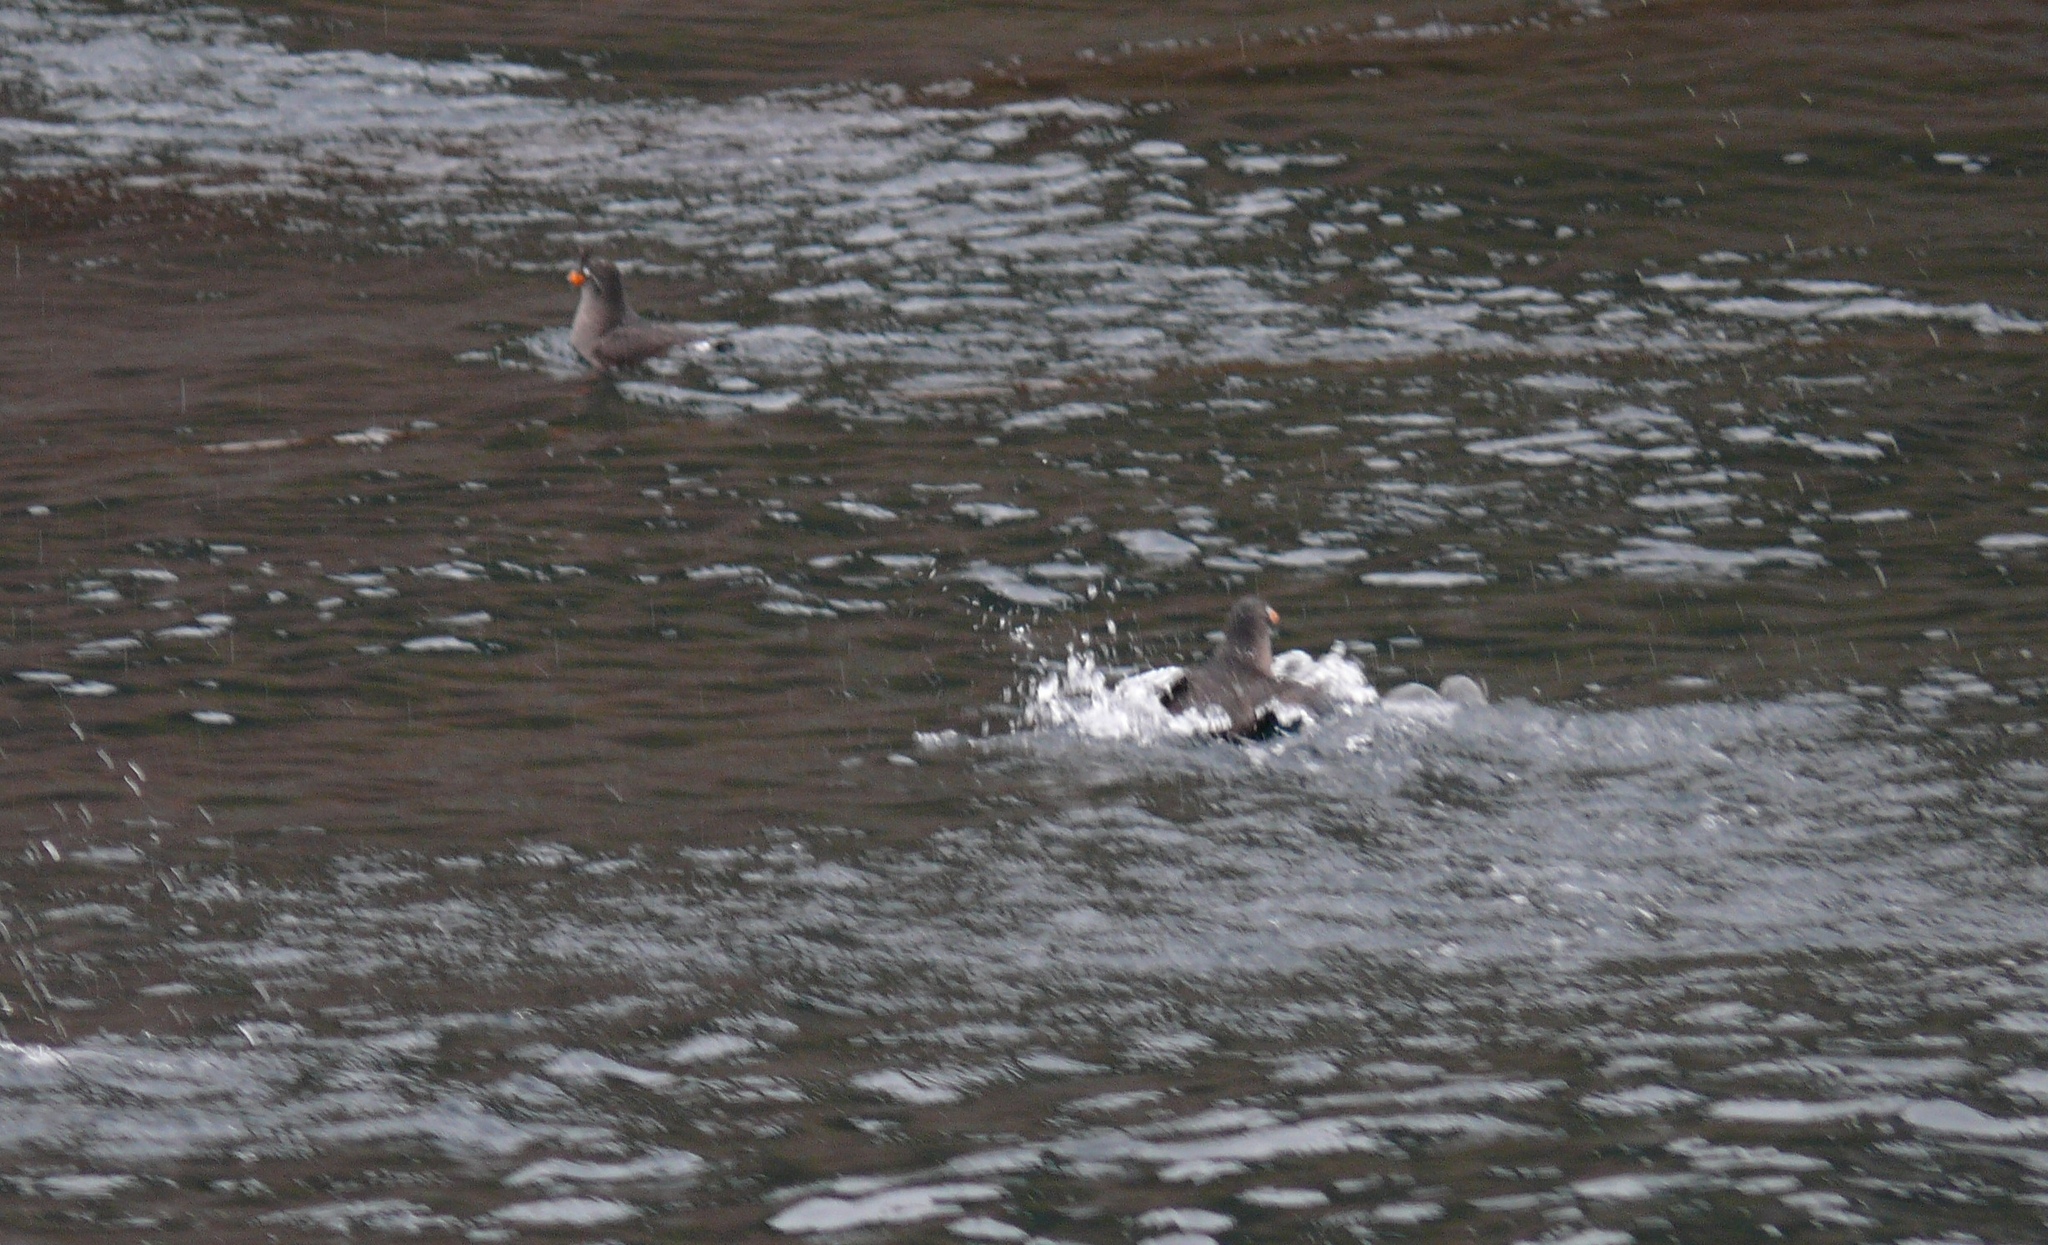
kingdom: Animalia
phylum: Chordata
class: Aves
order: Charadriiformes
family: Alcidae
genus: Aethia
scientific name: Aethia cristatella
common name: Crested auklet
